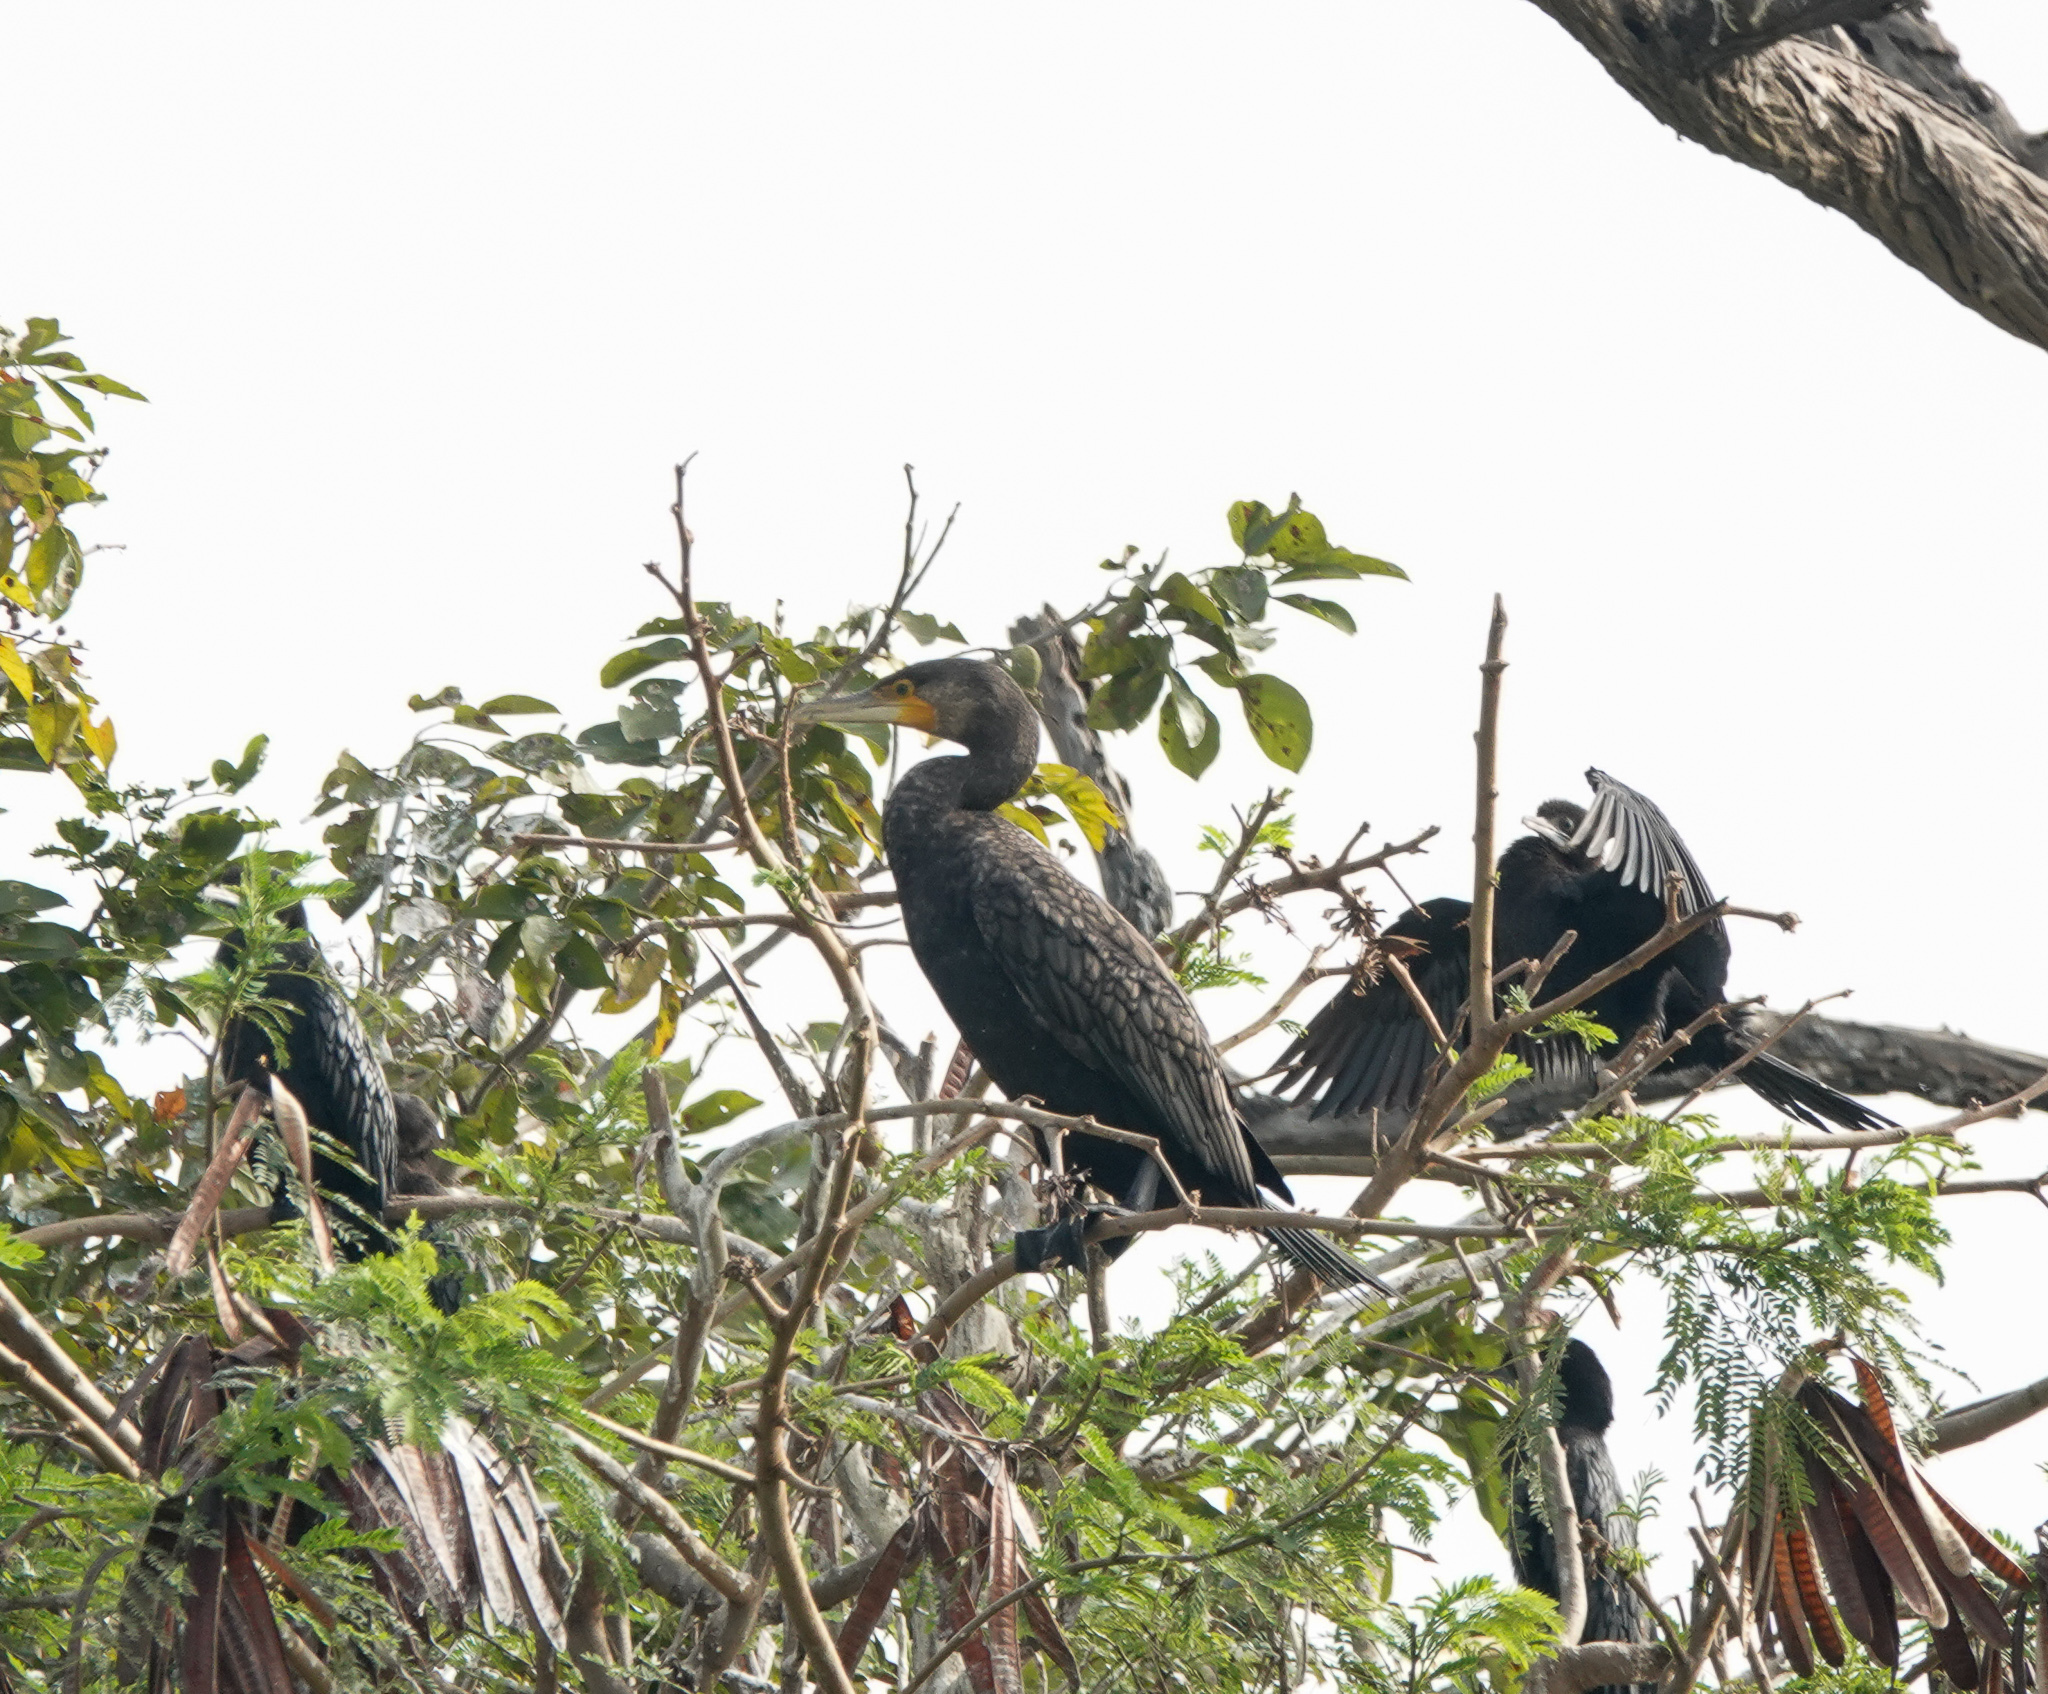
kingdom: Animalia
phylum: Chordata
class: Aves
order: Suliformes
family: Phalacrocoracidae
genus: Phalacrocorax
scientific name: Phalacrocorax carbo
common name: Great cormorant
